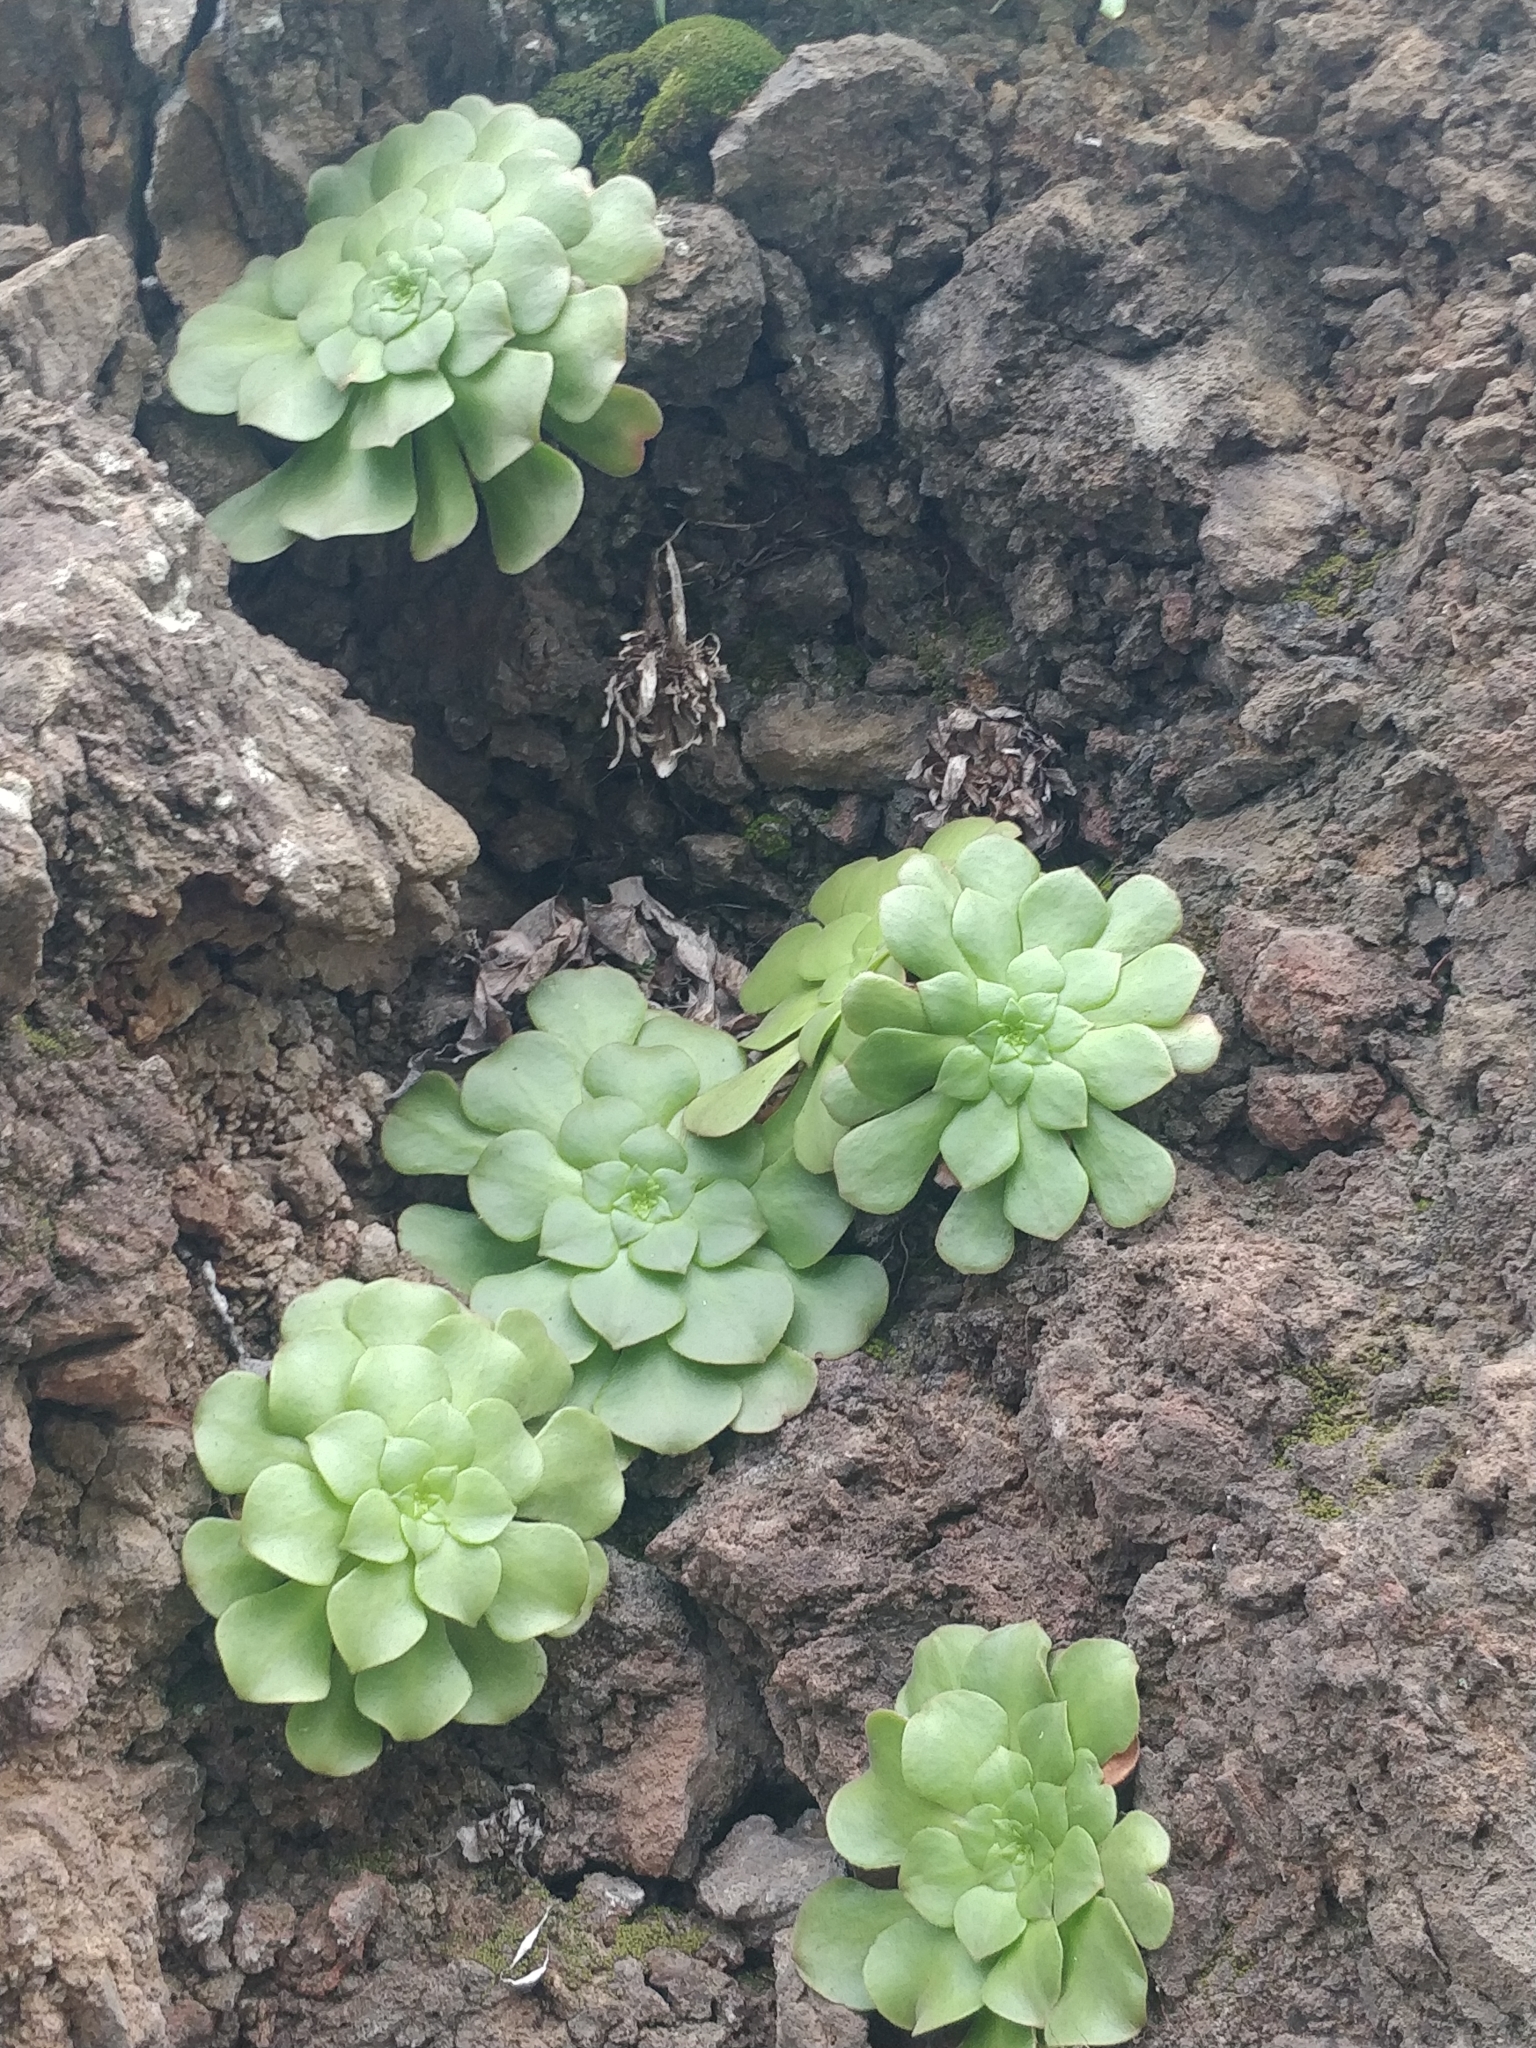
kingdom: Plantae
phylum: Tracheophyta
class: Magnoliopsida
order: Saxifragales
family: Crassulaceae
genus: Aeonium
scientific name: Aeonium glandulosum
